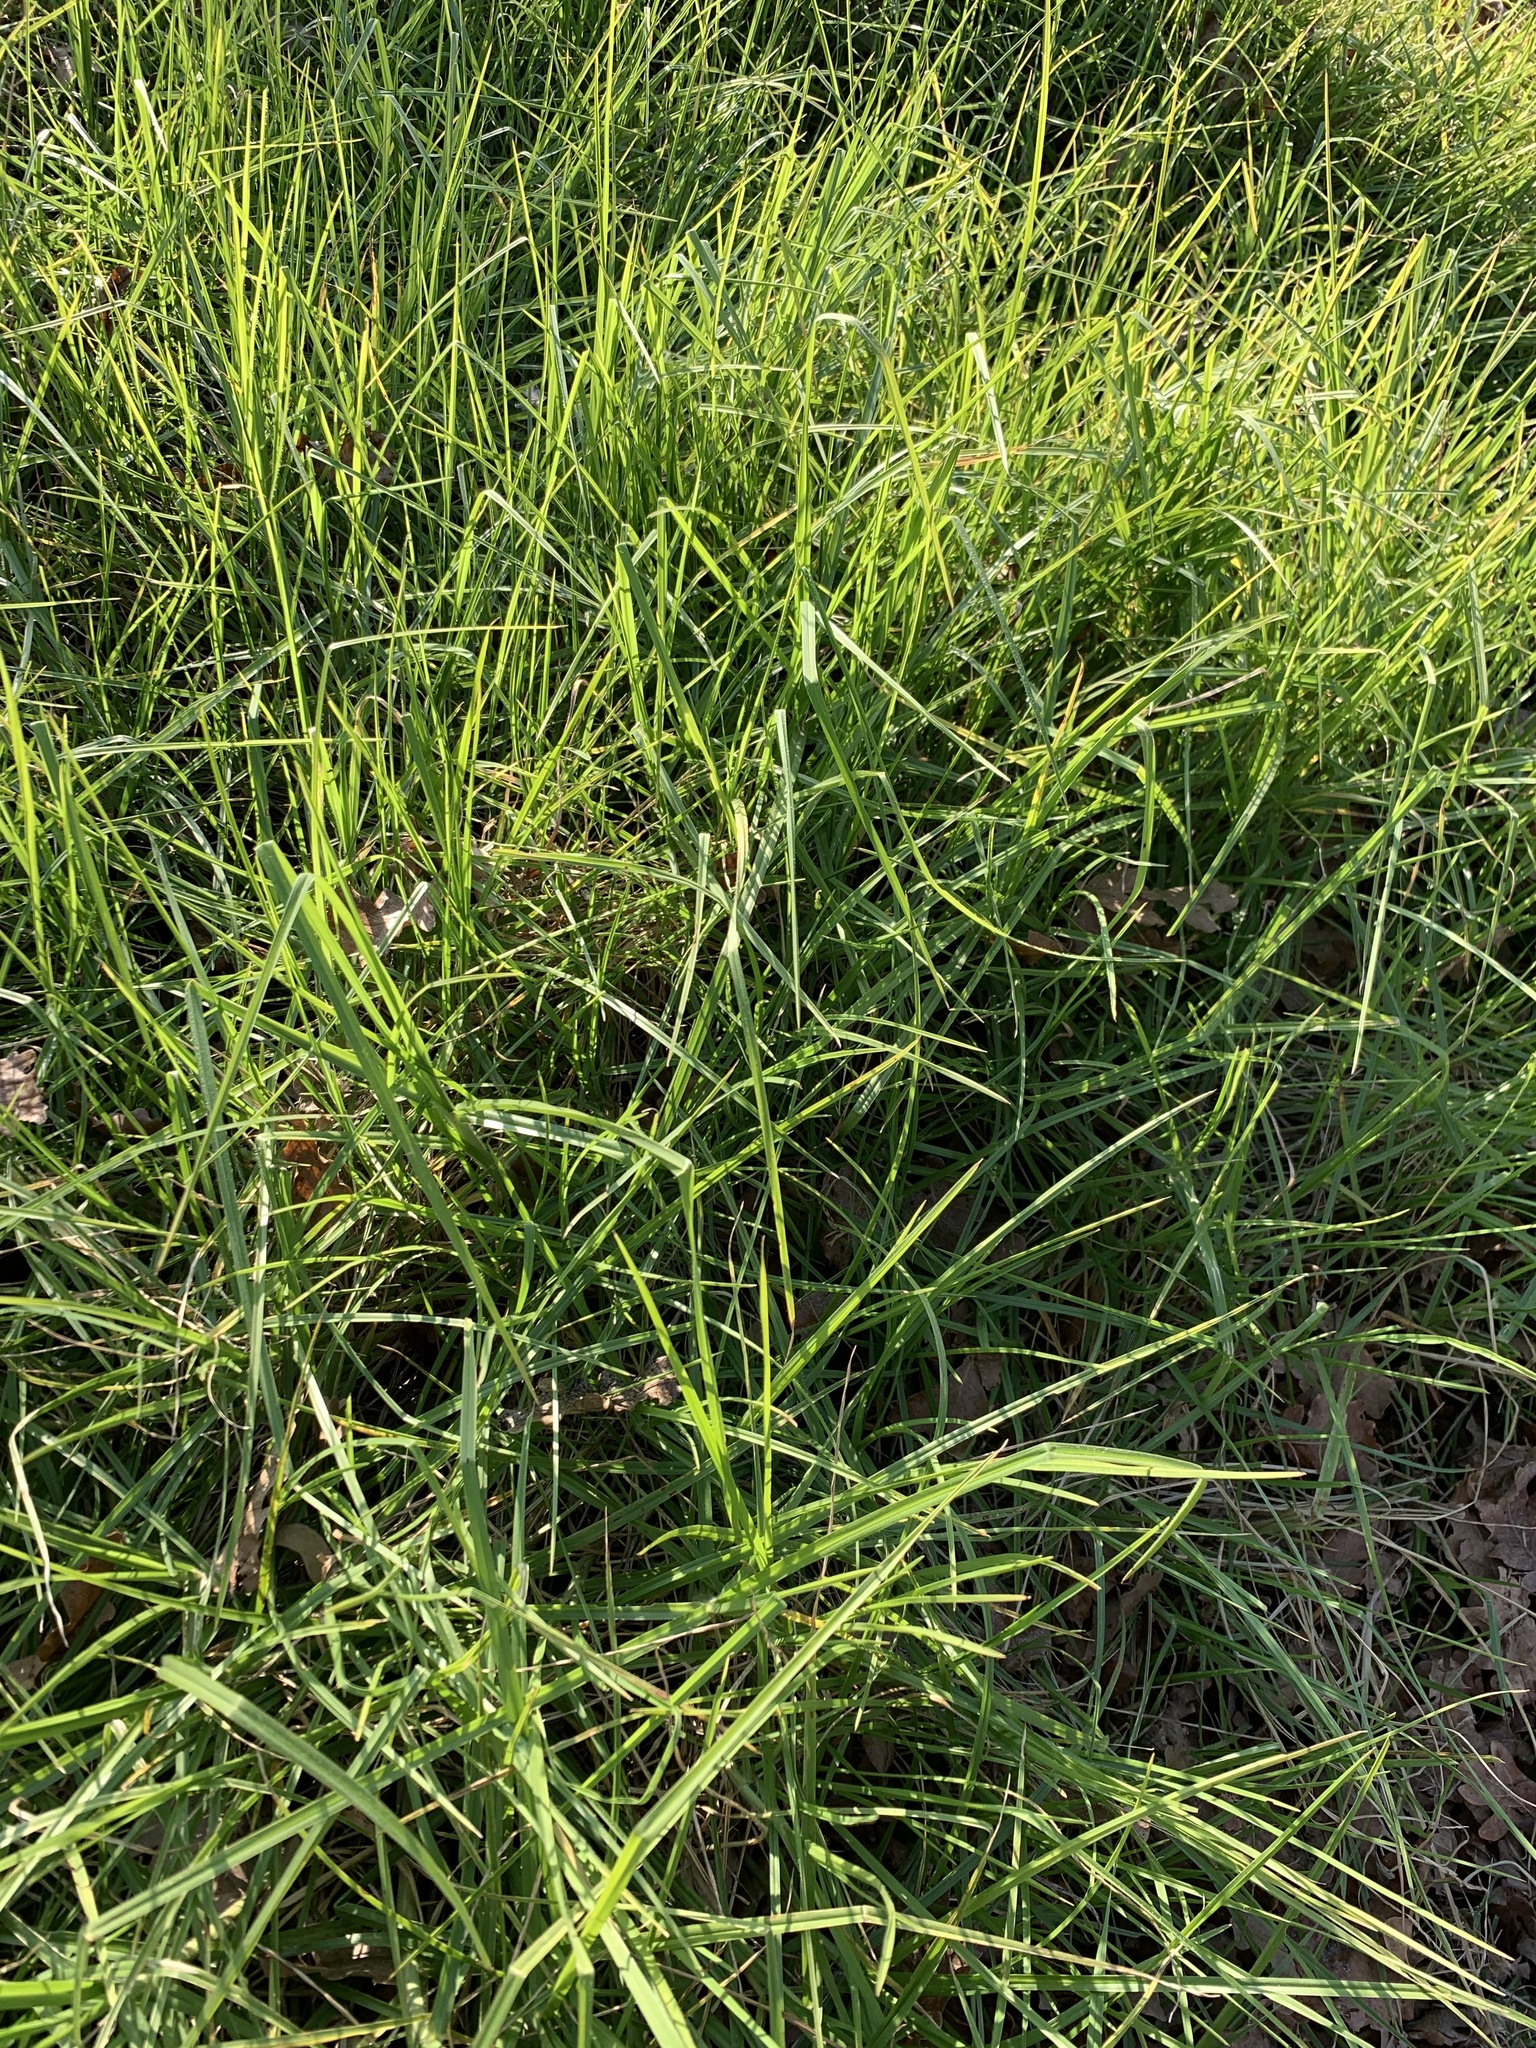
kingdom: Plantae
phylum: Tracheophyta
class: Liliopsida
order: Poales
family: Poaceae
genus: Cenchrus
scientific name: Cenchrus clandestinus
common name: Kikuyugrass
